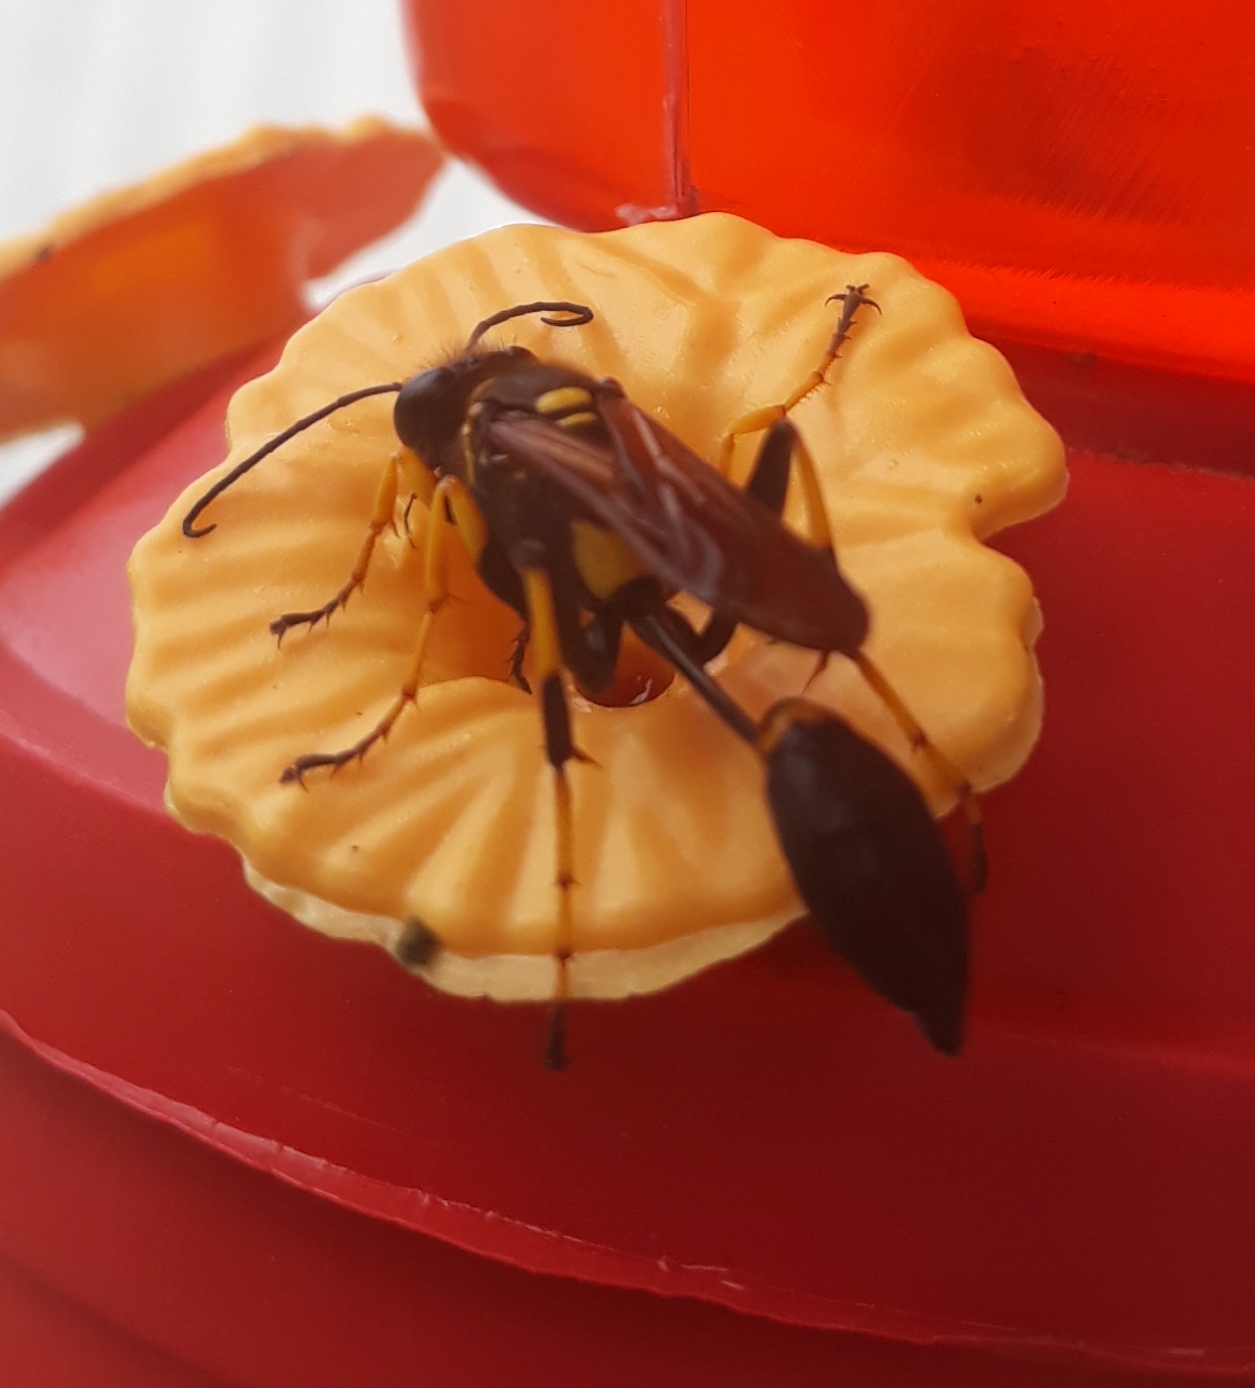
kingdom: Animalia
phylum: Arthropoda
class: Insecta
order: Hymenoptera
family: Sphecidae
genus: Sceliphron
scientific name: Sceliphron caementarium
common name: Mud dauber
